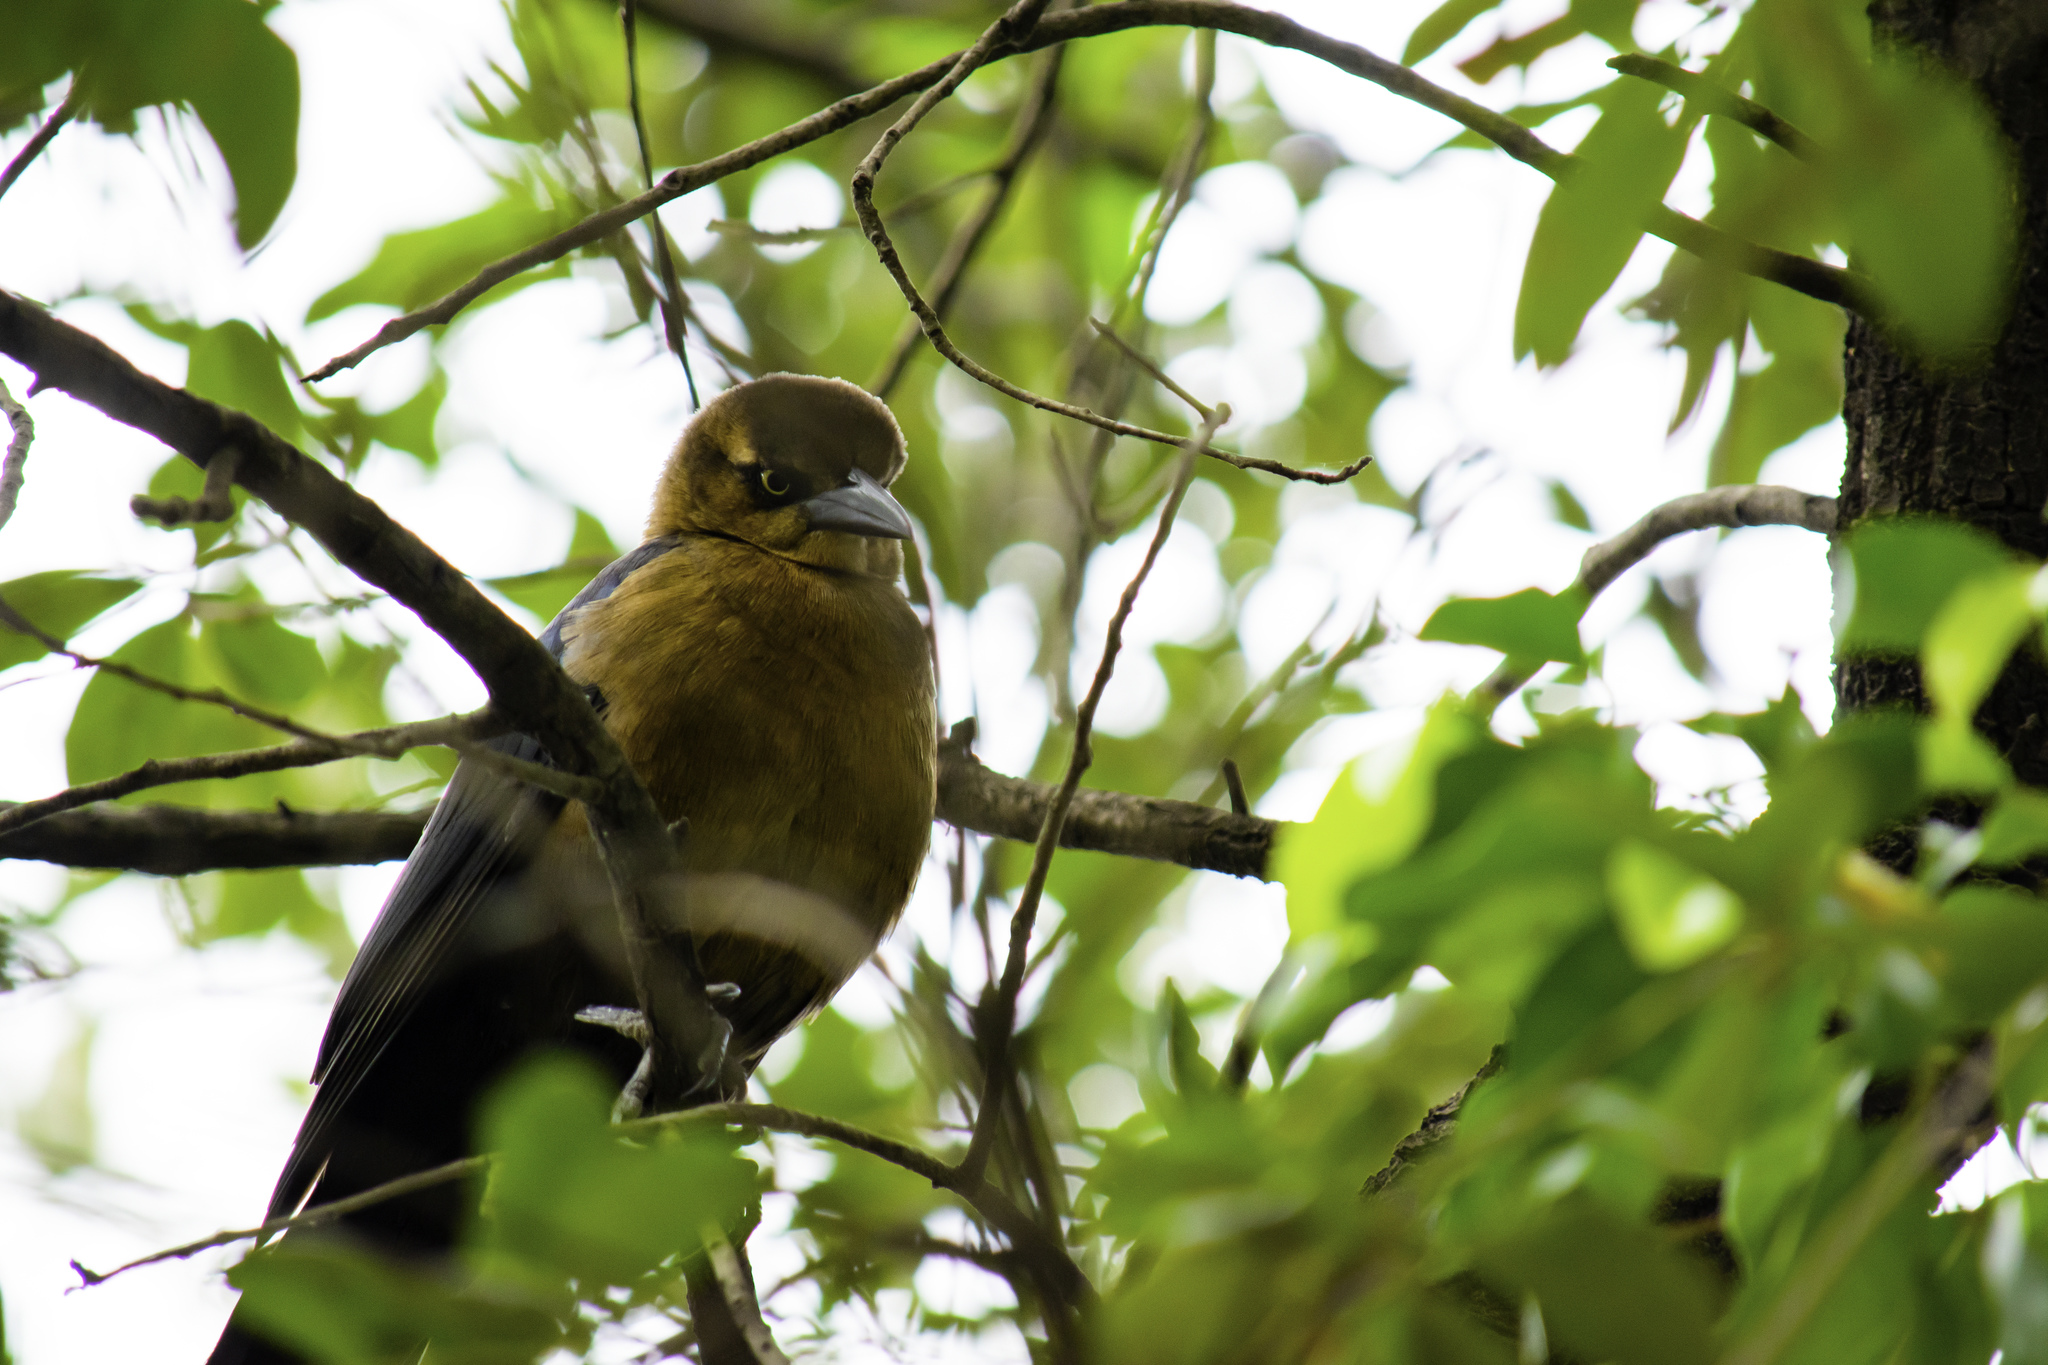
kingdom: Animalia
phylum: Chordata
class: Aves
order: Passeriformes
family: Icteridae
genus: Quiscalus
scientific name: Quiscalus mexicanus
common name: Great-tailed grackle
